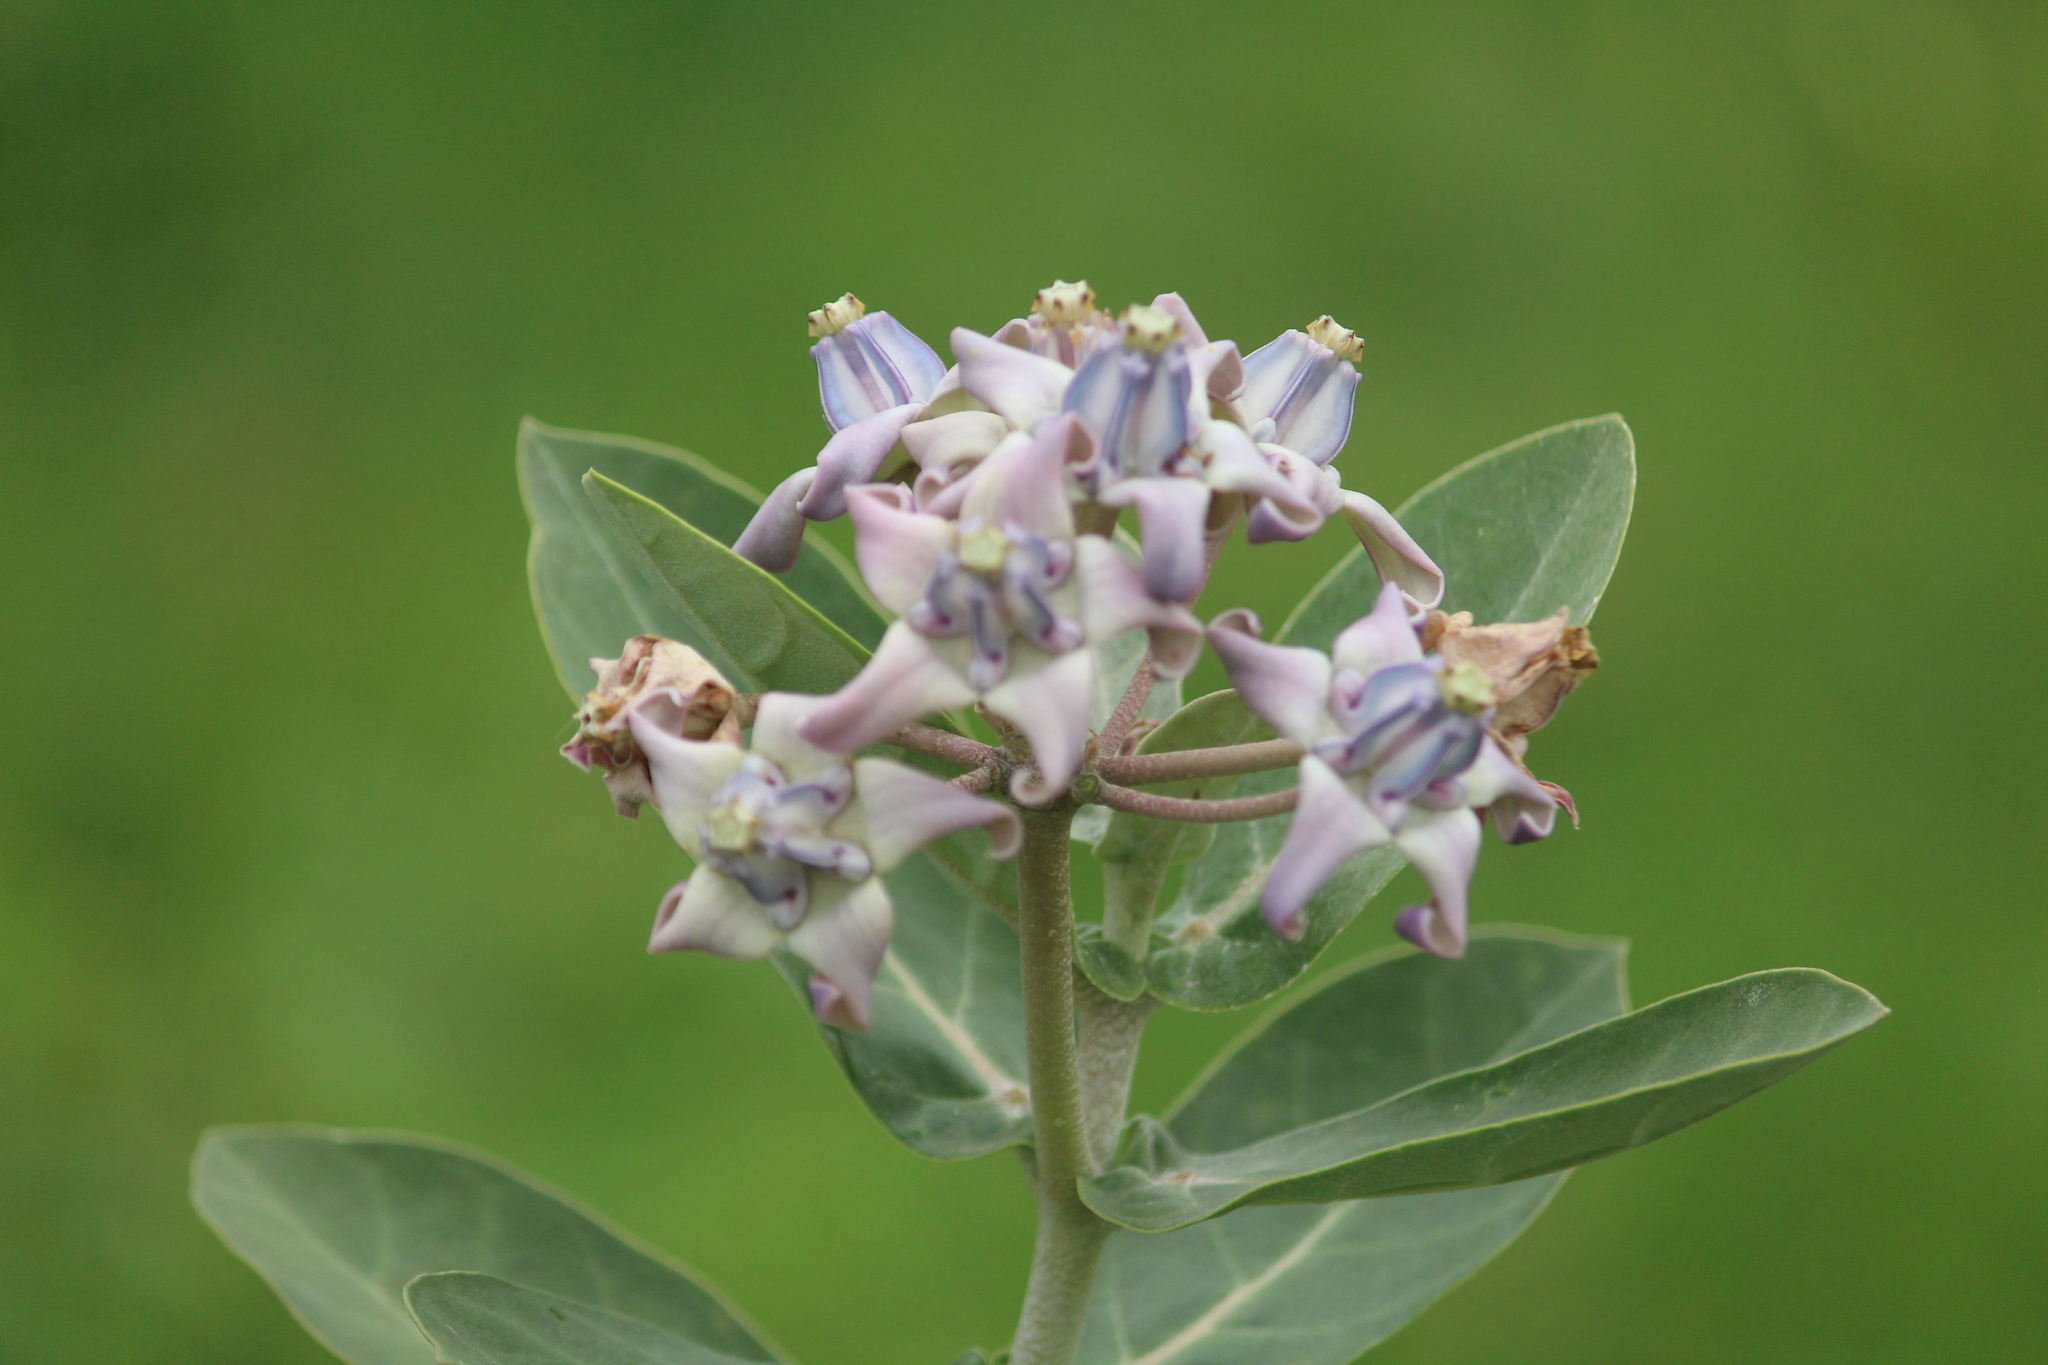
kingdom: Plantae
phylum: Tracheophyta
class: Magnoliopsida
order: Gentianales
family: Apocynaceae
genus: Calotropis
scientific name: Calotropis gigantea
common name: Crown flower
